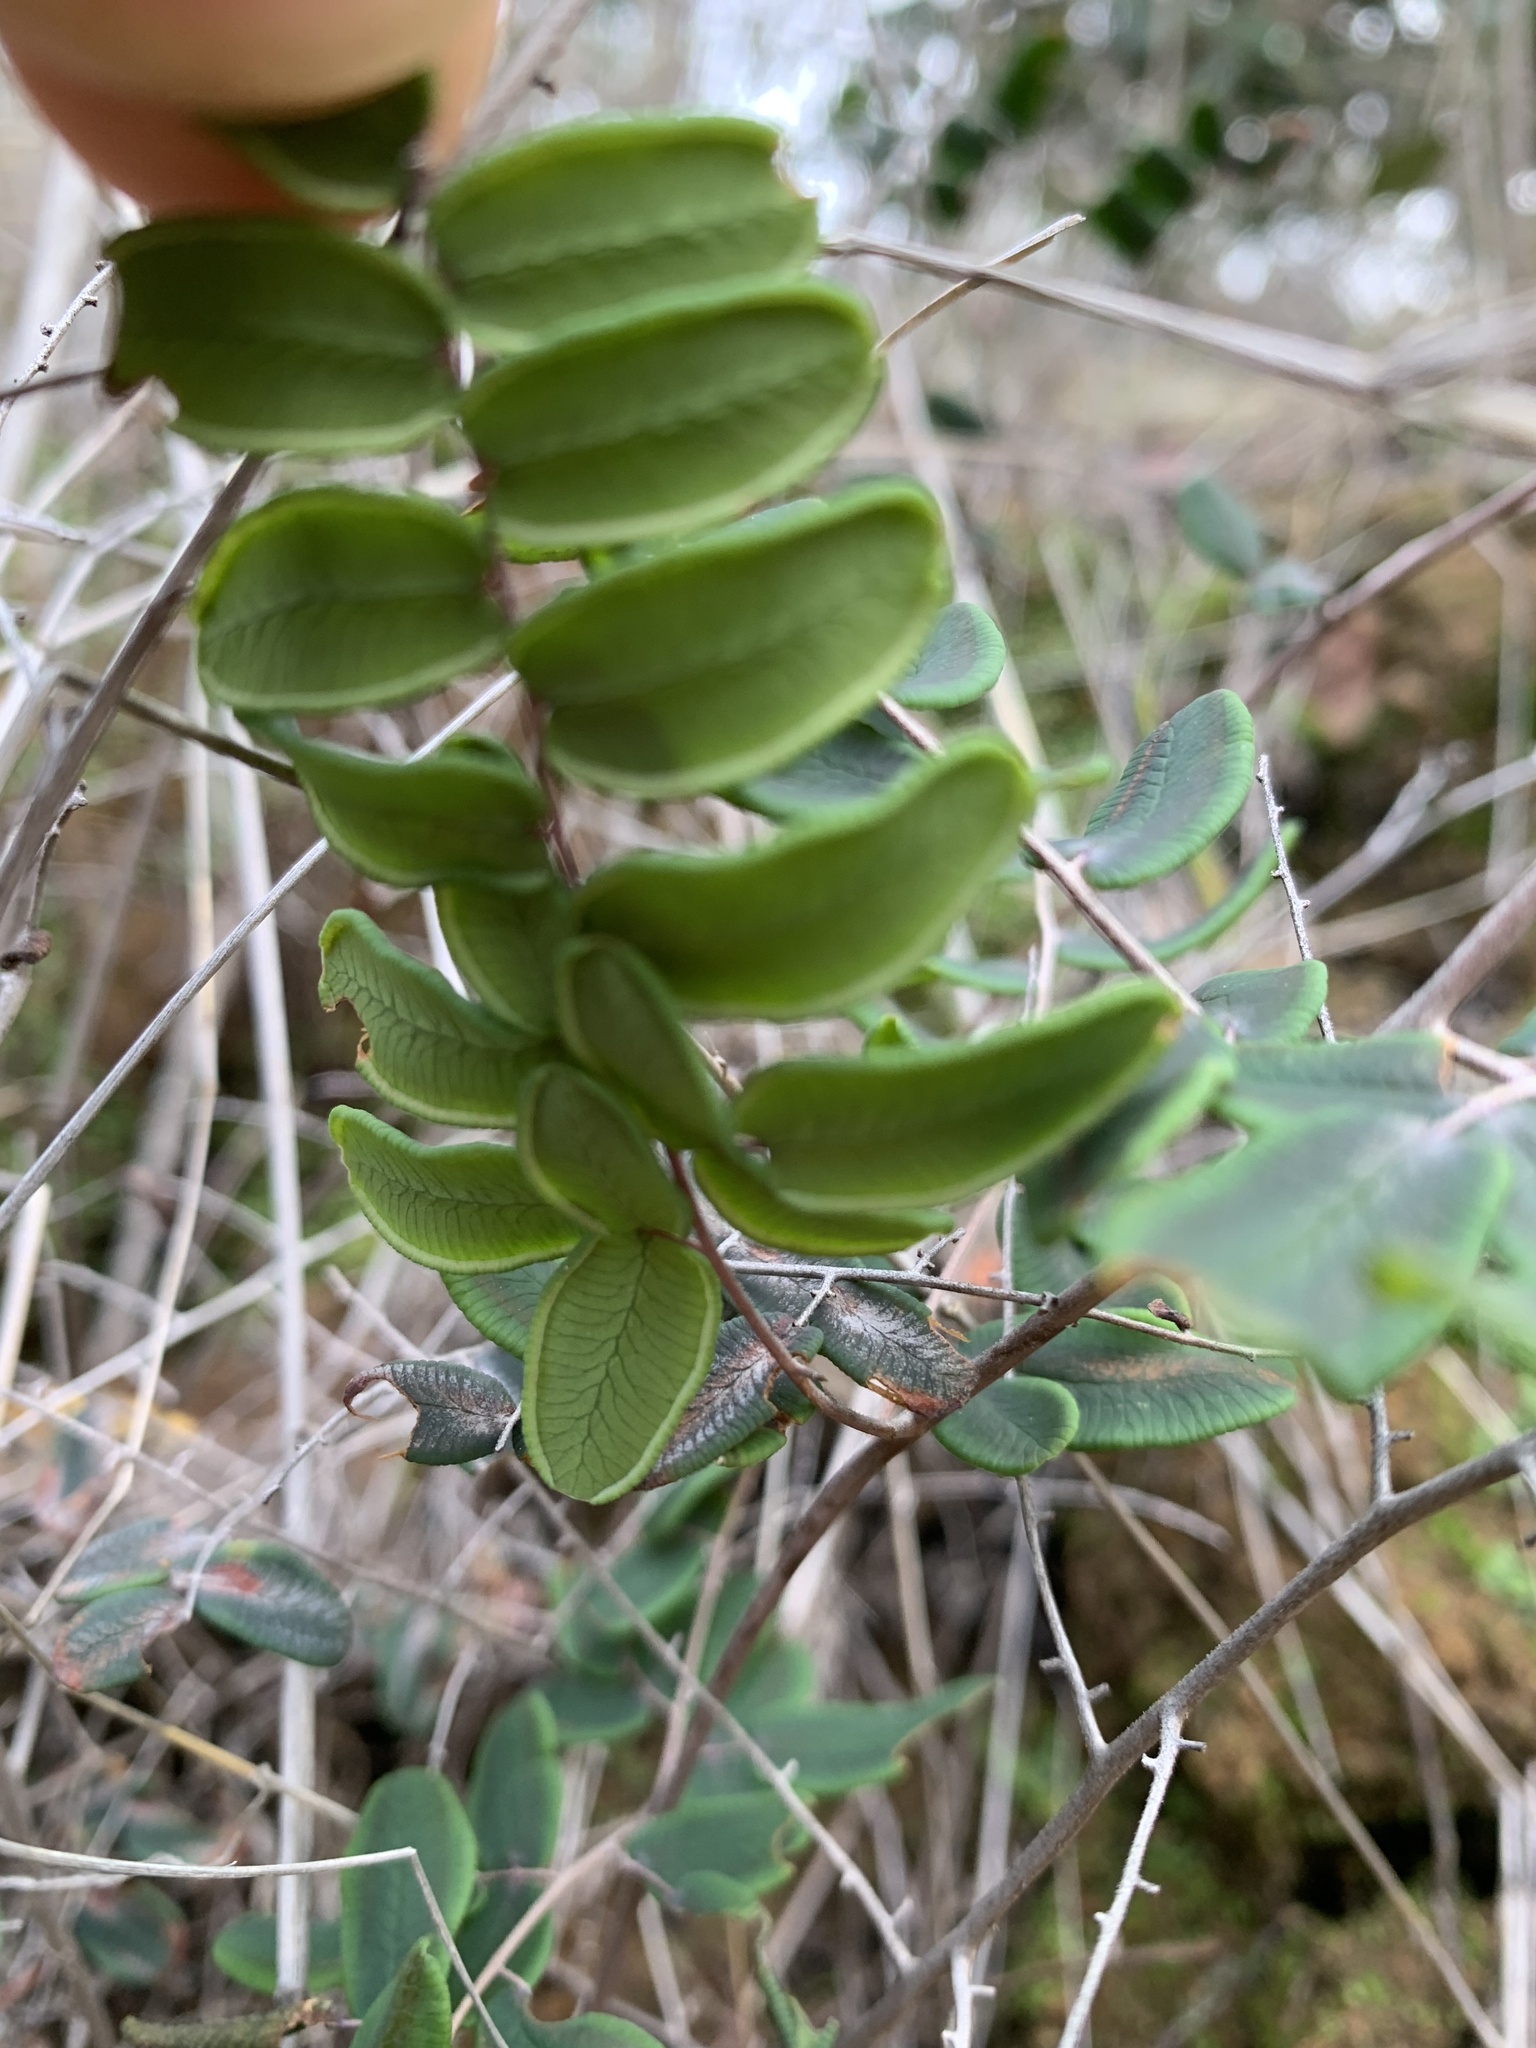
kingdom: Plantae
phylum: Tracheophyta
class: Polypodiopsida
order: Polypodiales
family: Pteridaceae
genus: Pellaea
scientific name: Pellaea andromedifolia
